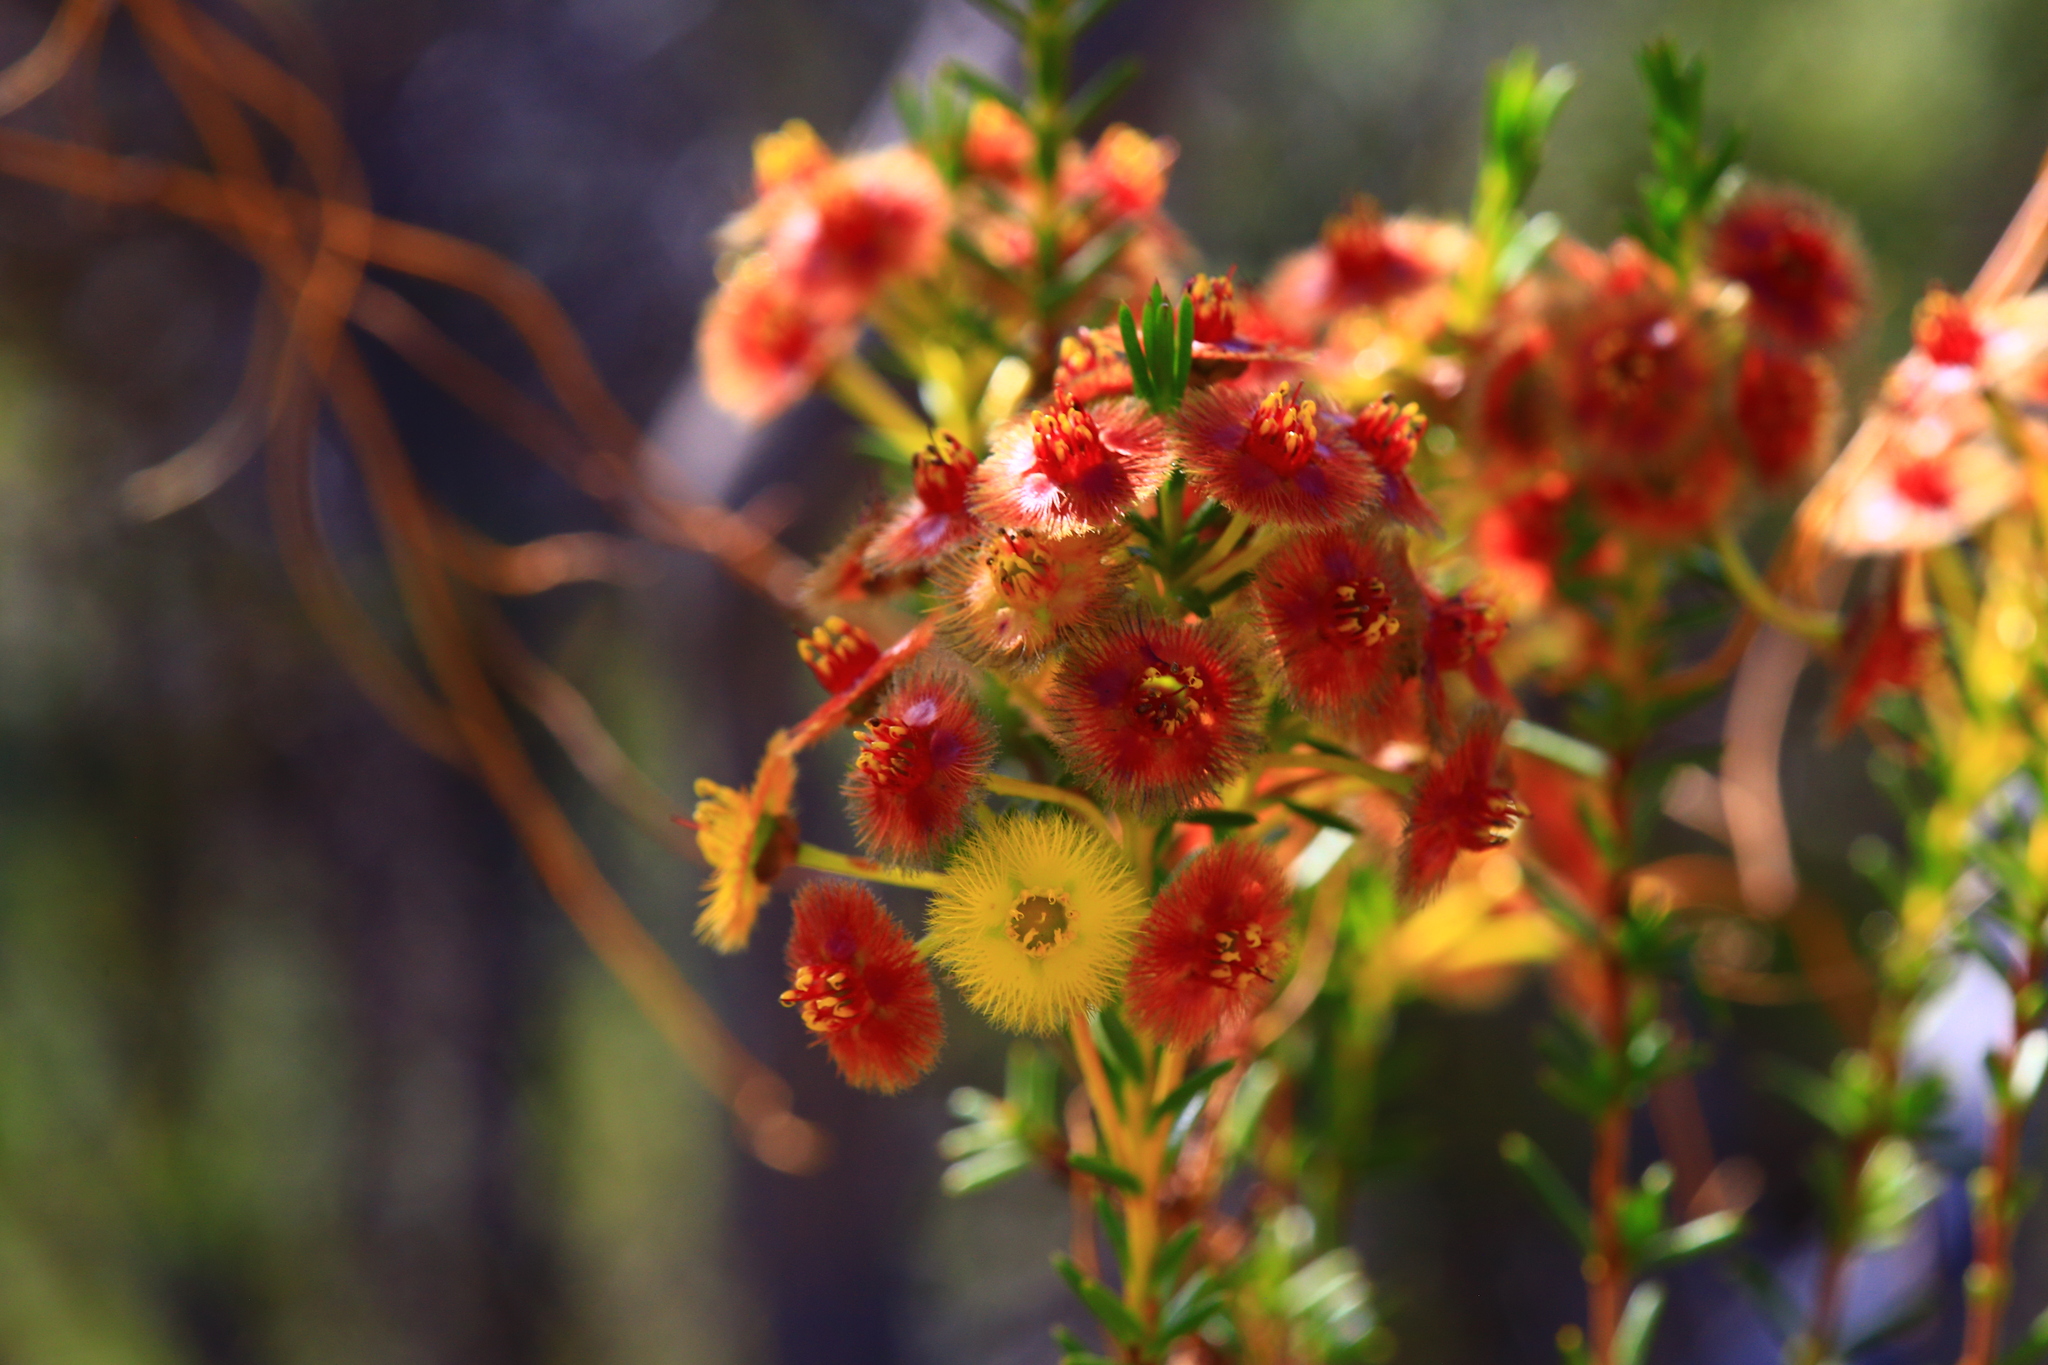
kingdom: Plantae
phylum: Tracheophyta
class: Magnoliopsida
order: Myrtales
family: Myrtaceae
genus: Verticordia
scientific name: Verticordia nobilis
